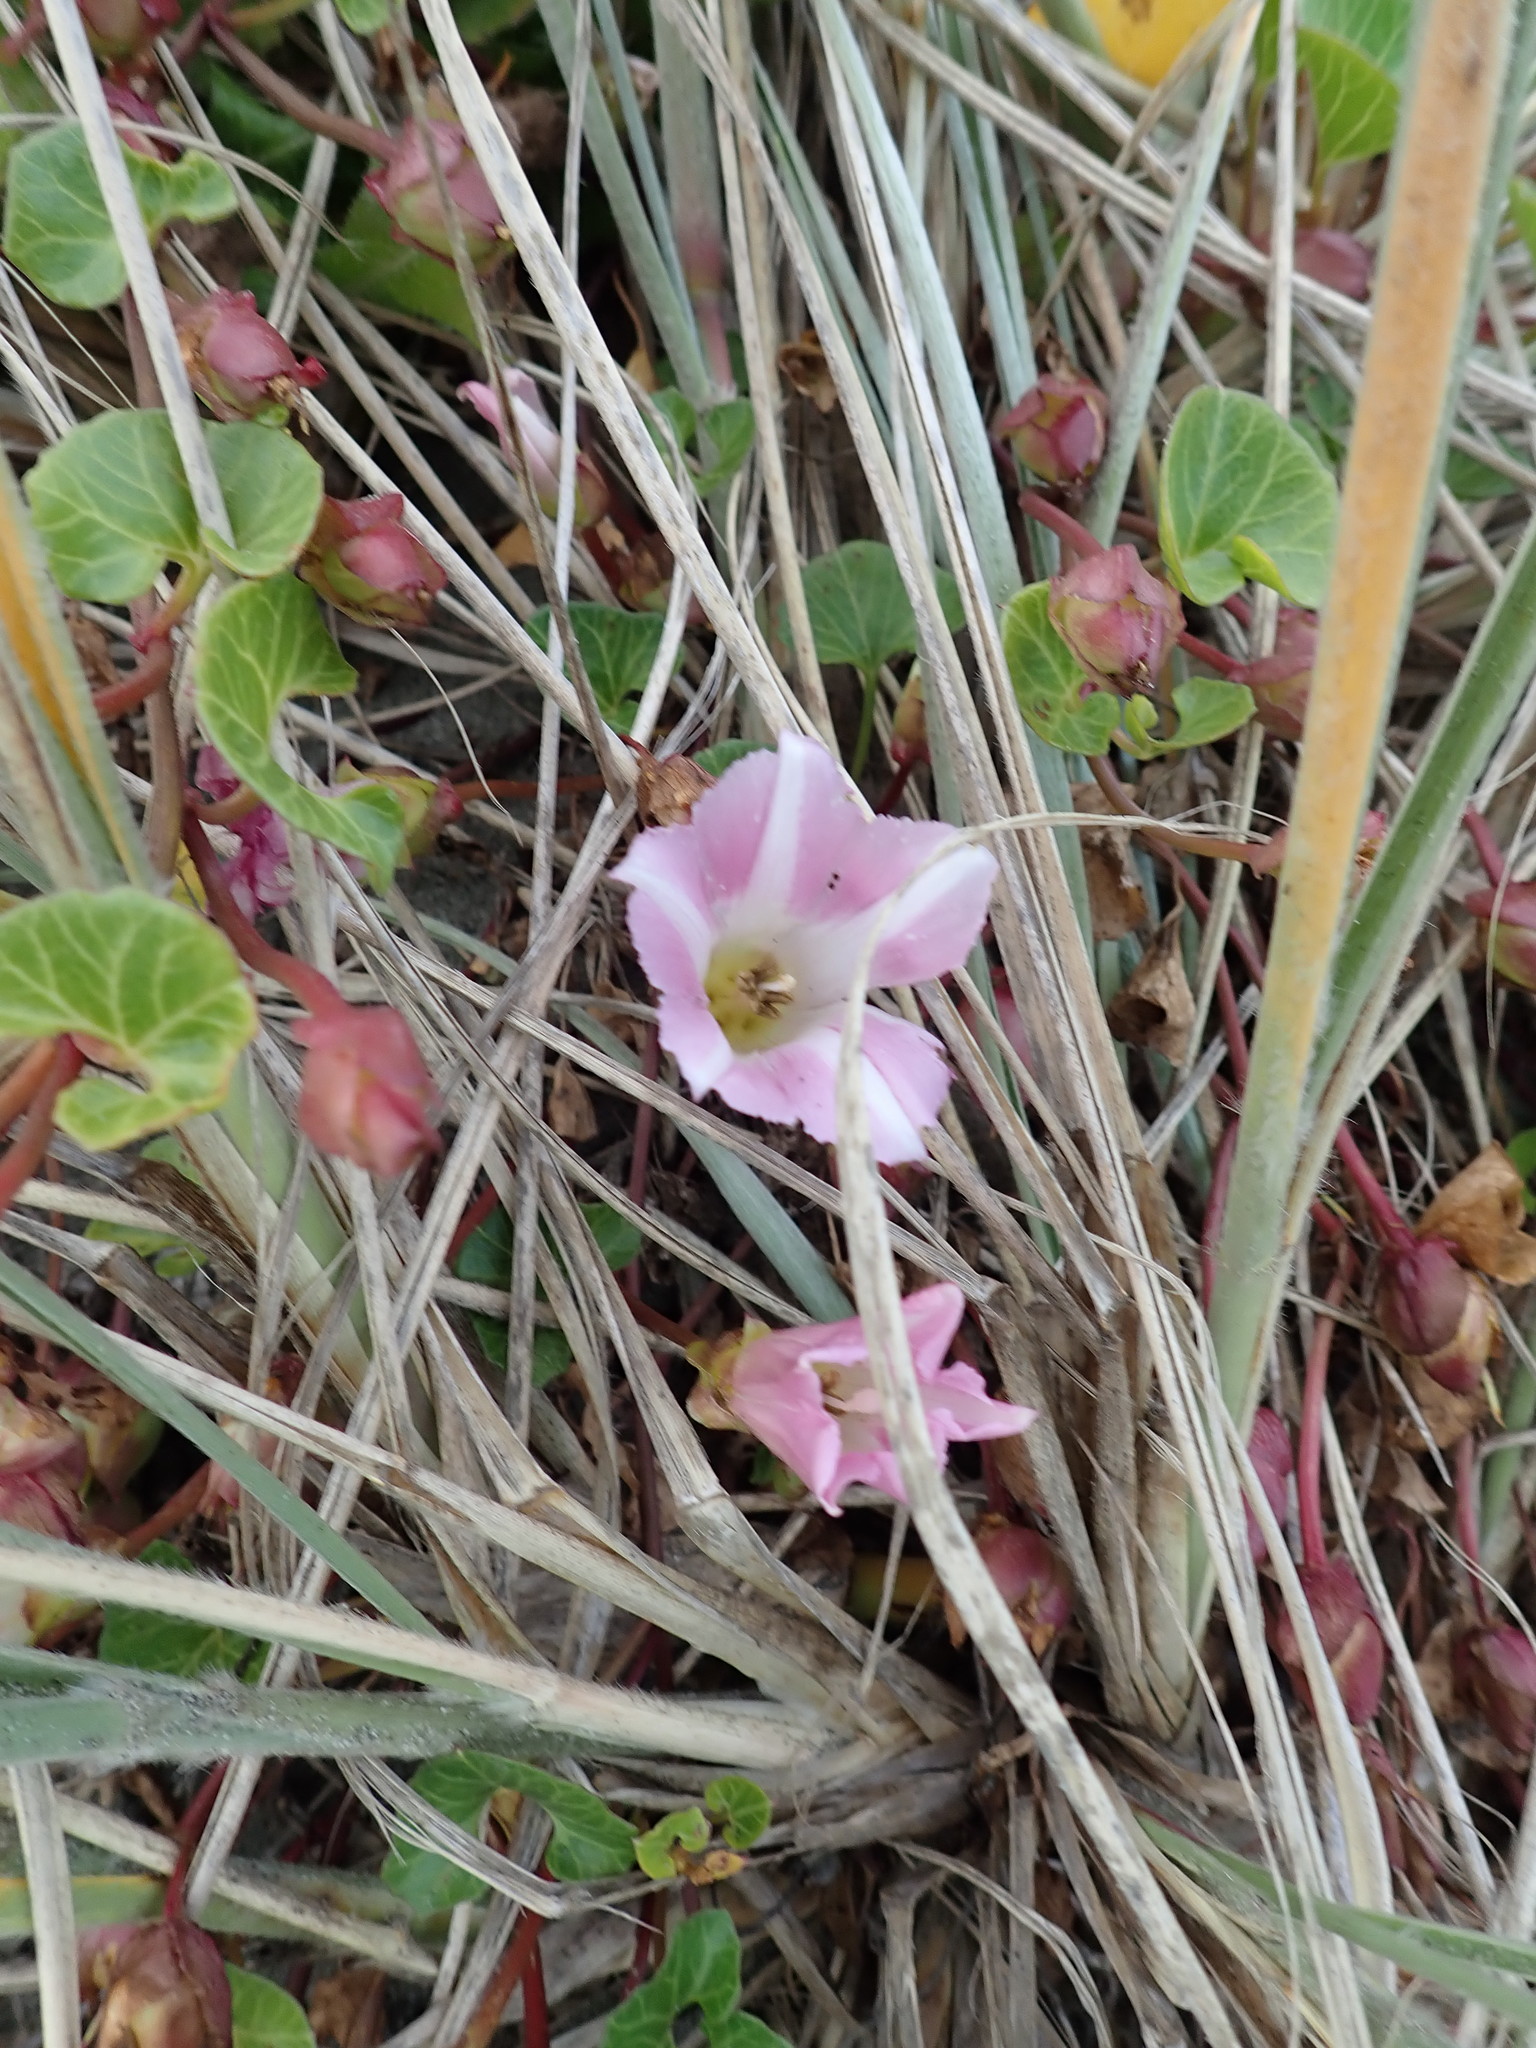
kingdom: Plantae
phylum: Tracheophyta
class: Magnoliopsida
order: Solanales
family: Convolvulaceae
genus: Calystegia
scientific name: Calystegia soldanella
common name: Sea bindweed
